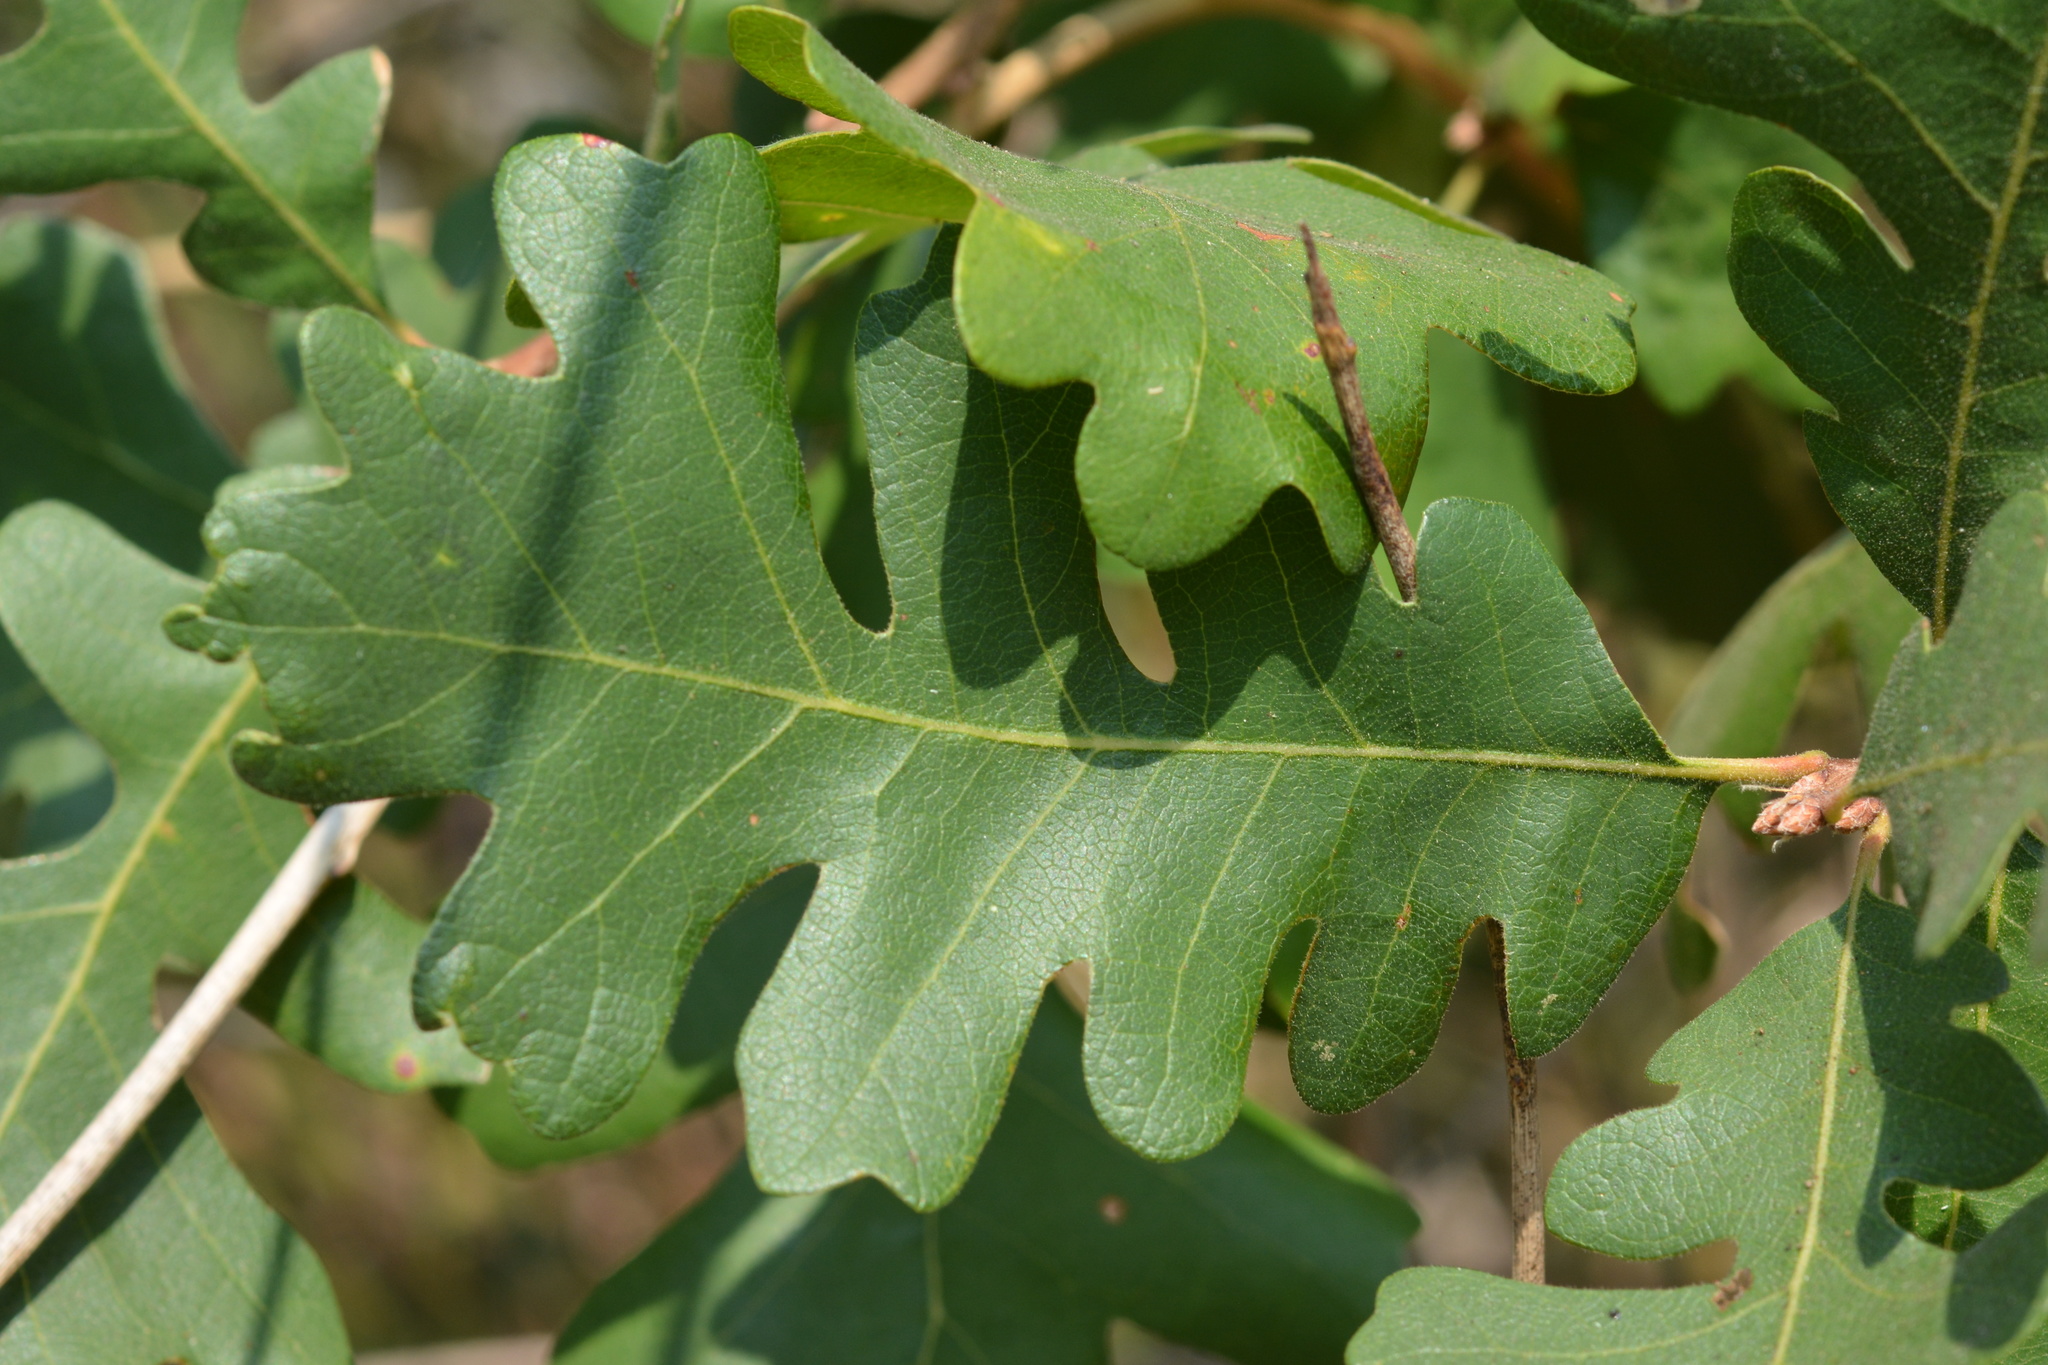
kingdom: Animalia
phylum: Arthropoda
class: Insecta
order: Hymenoptera
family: Cynipidae
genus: Andricus
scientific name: Andricus
